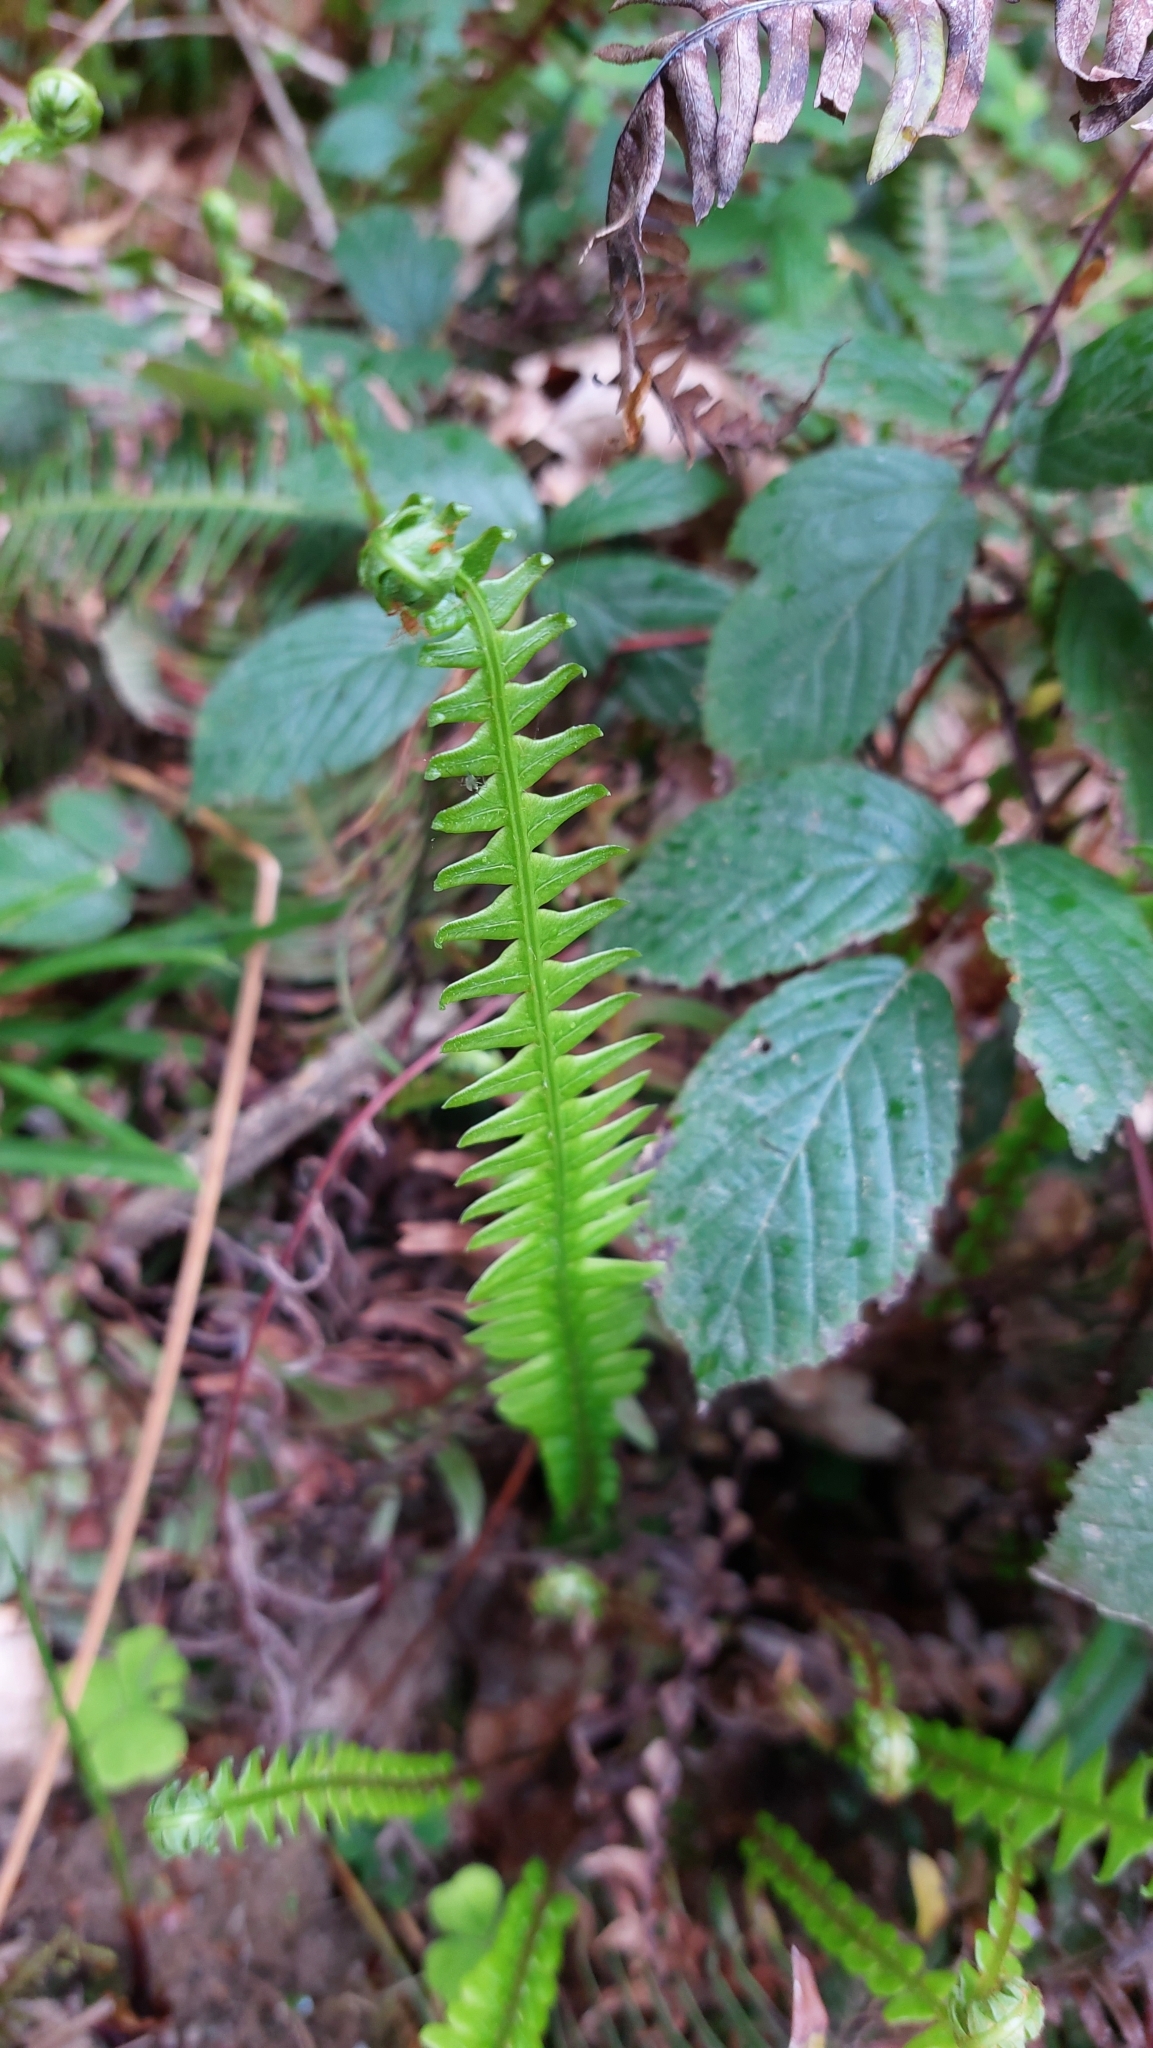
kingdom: Plantae
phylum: Tracheophyta
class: Polypodiopsida
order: Polypodiales
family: Blechnaceae
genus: Struthiopteris
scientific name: Struthiopteris spicant
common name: Deer fern
